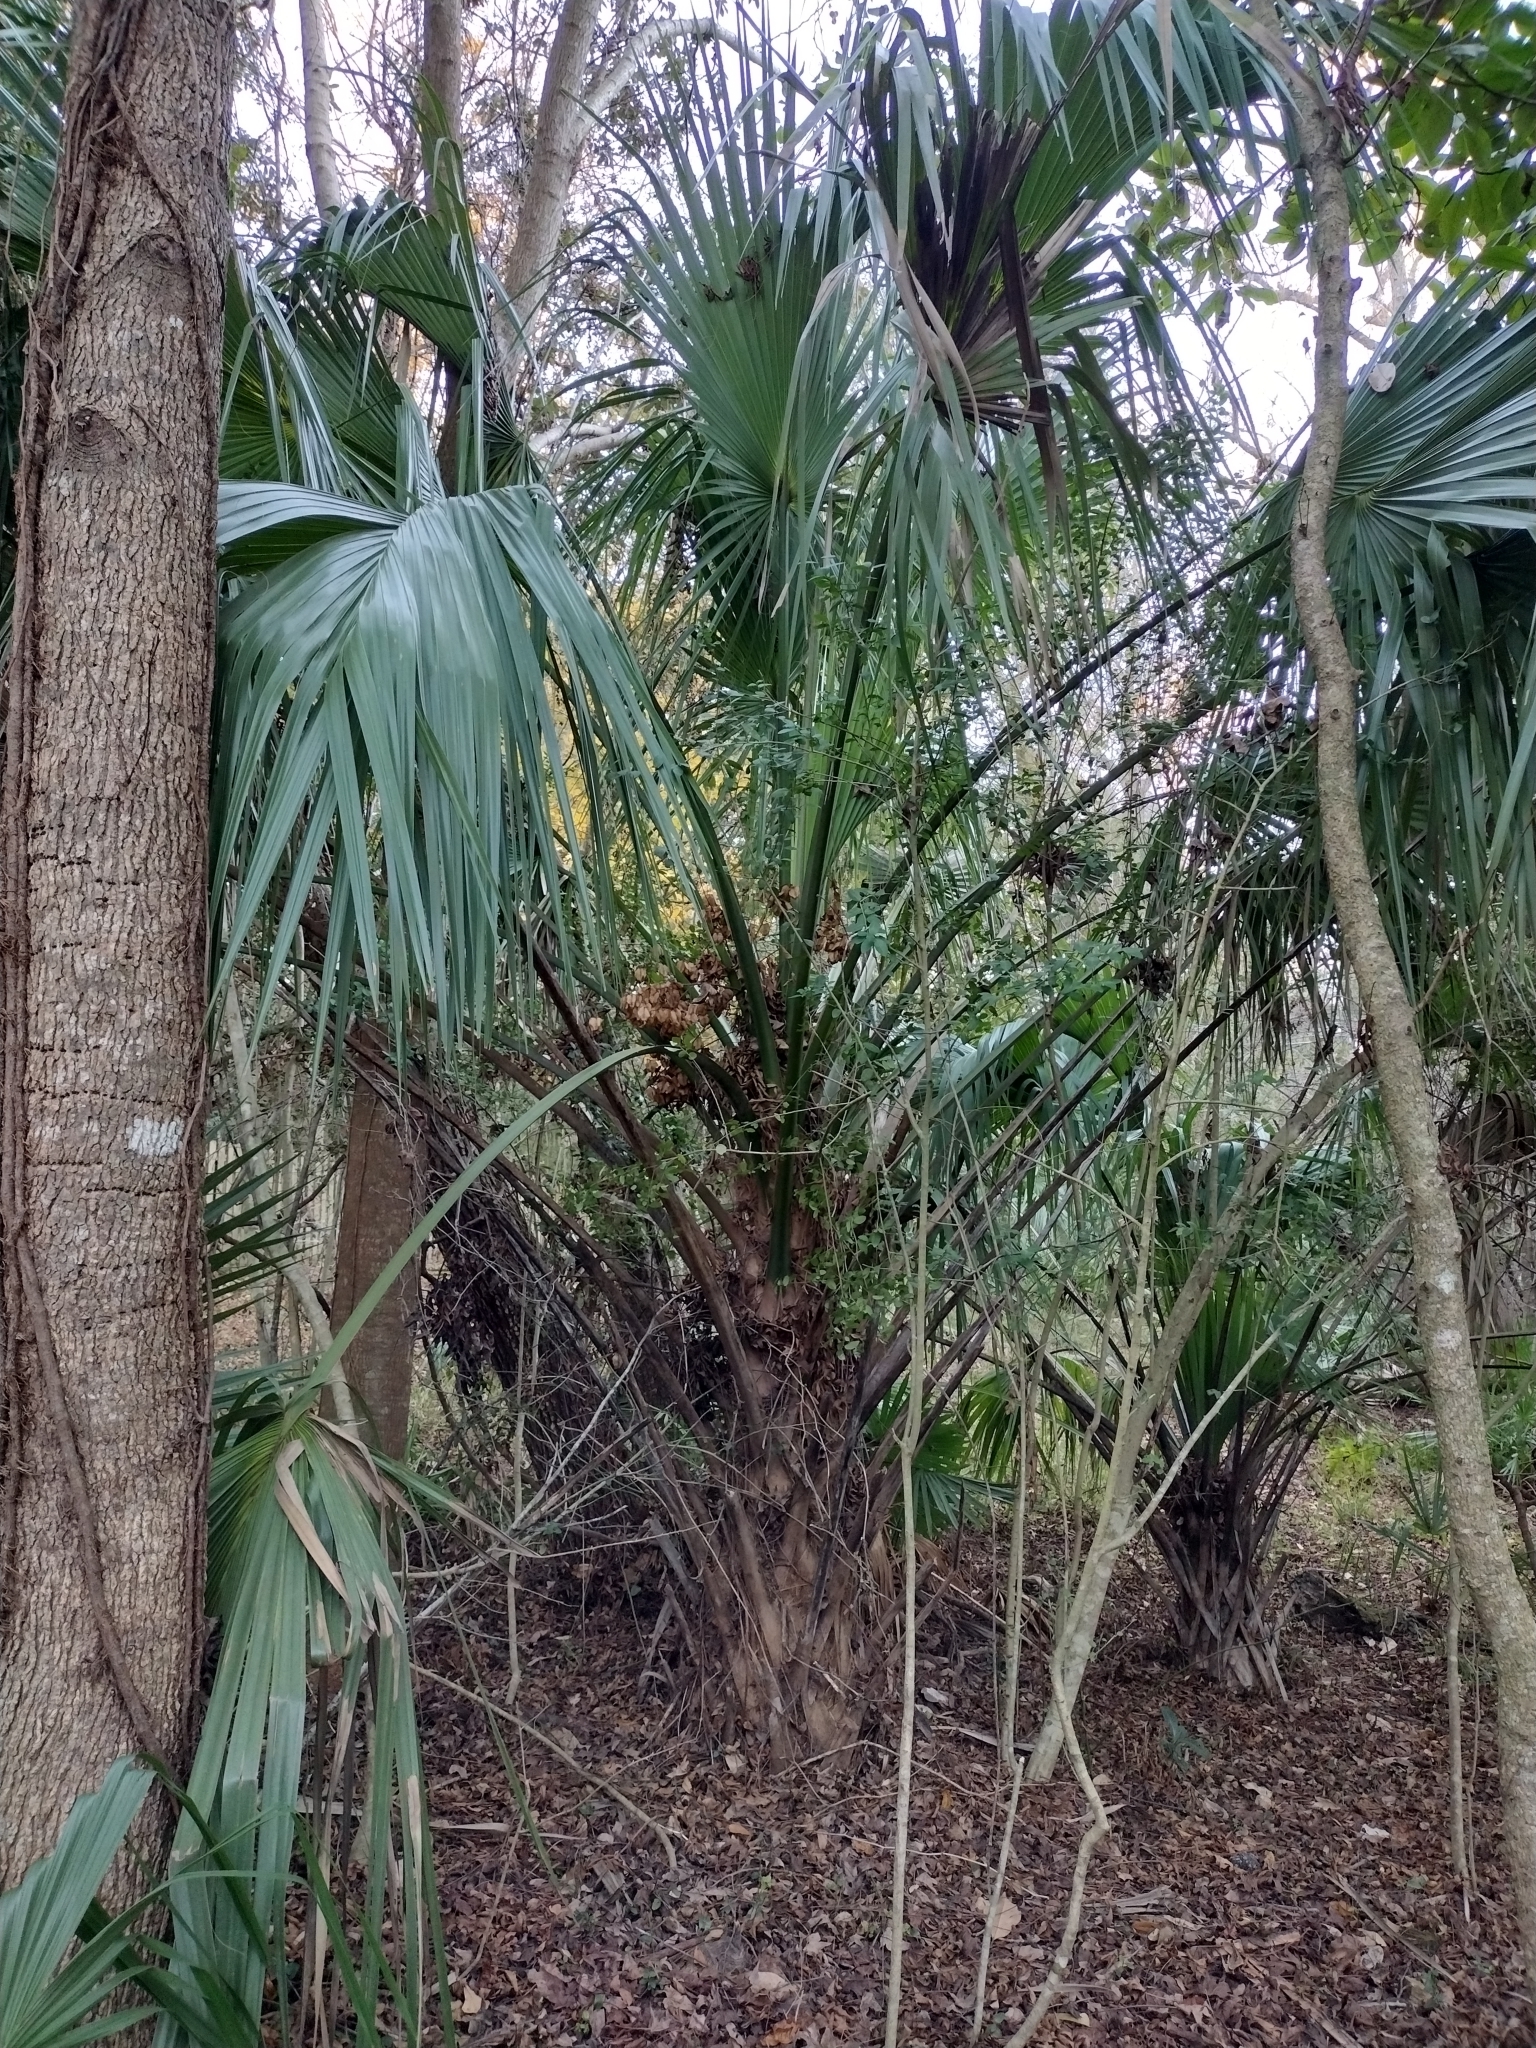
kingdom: Plantae
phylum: Tracheophyta
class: Liliopsida
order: Arecales
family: Arecaceae
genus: Sabal
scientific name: Sabal palmetto
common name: Blue palmetto
